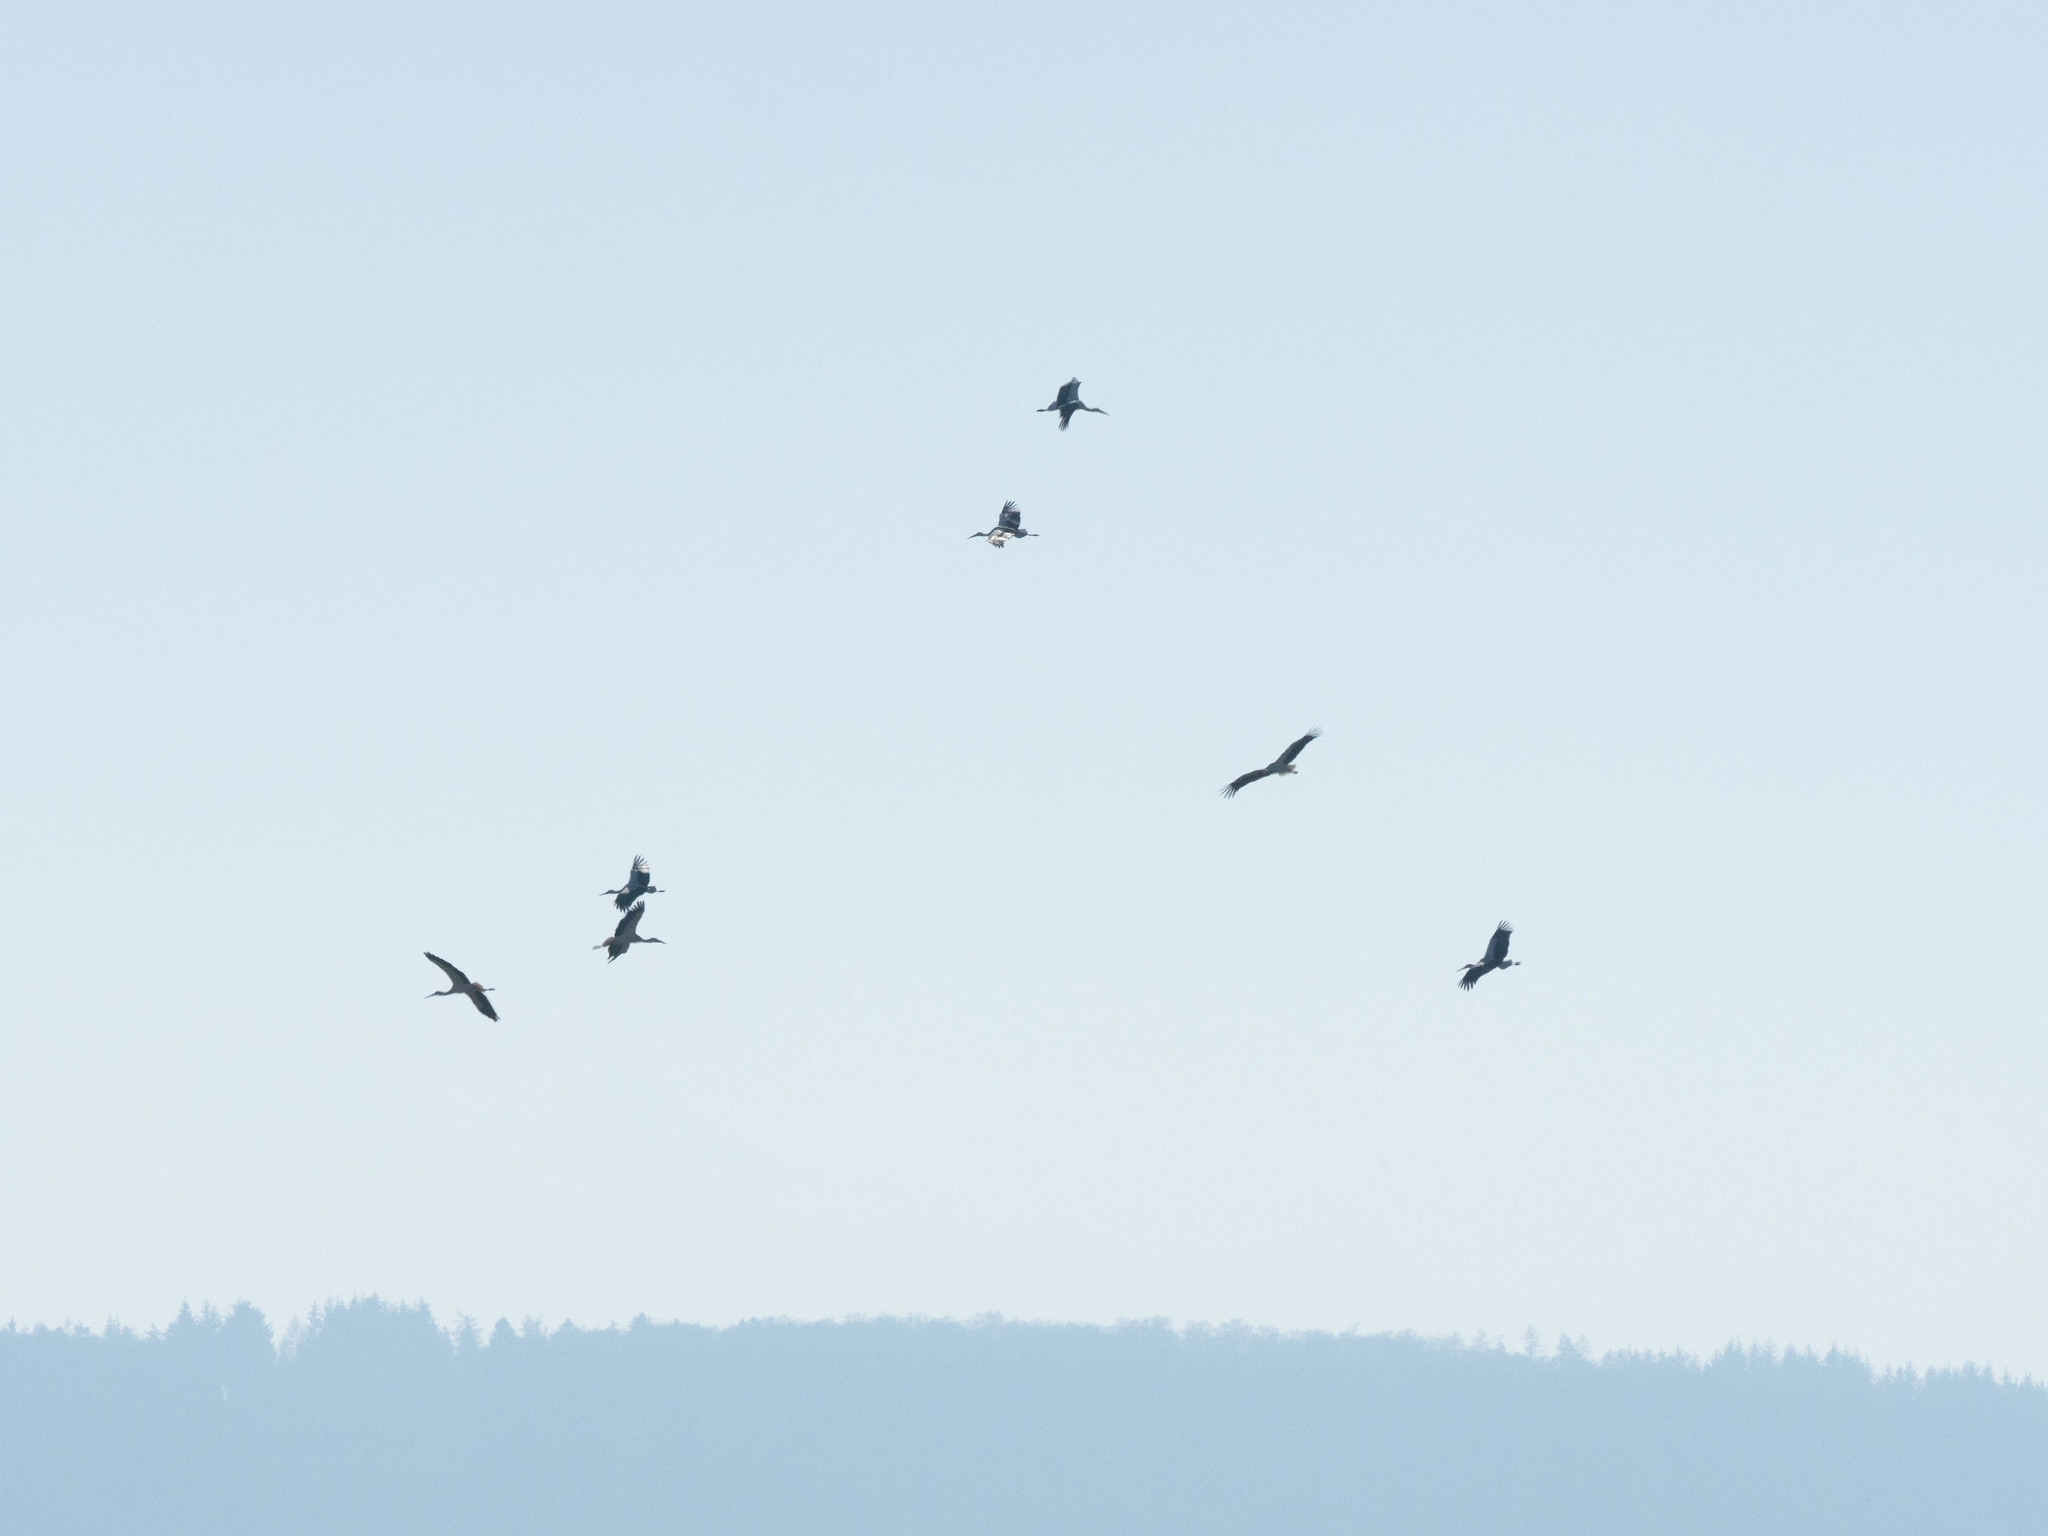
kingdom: Animalia
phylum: Chordata
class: Aves
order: Ciconiiformes
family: Ciconiidae
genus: Ciconia
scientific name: Ciconia ciconia
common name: White stork
